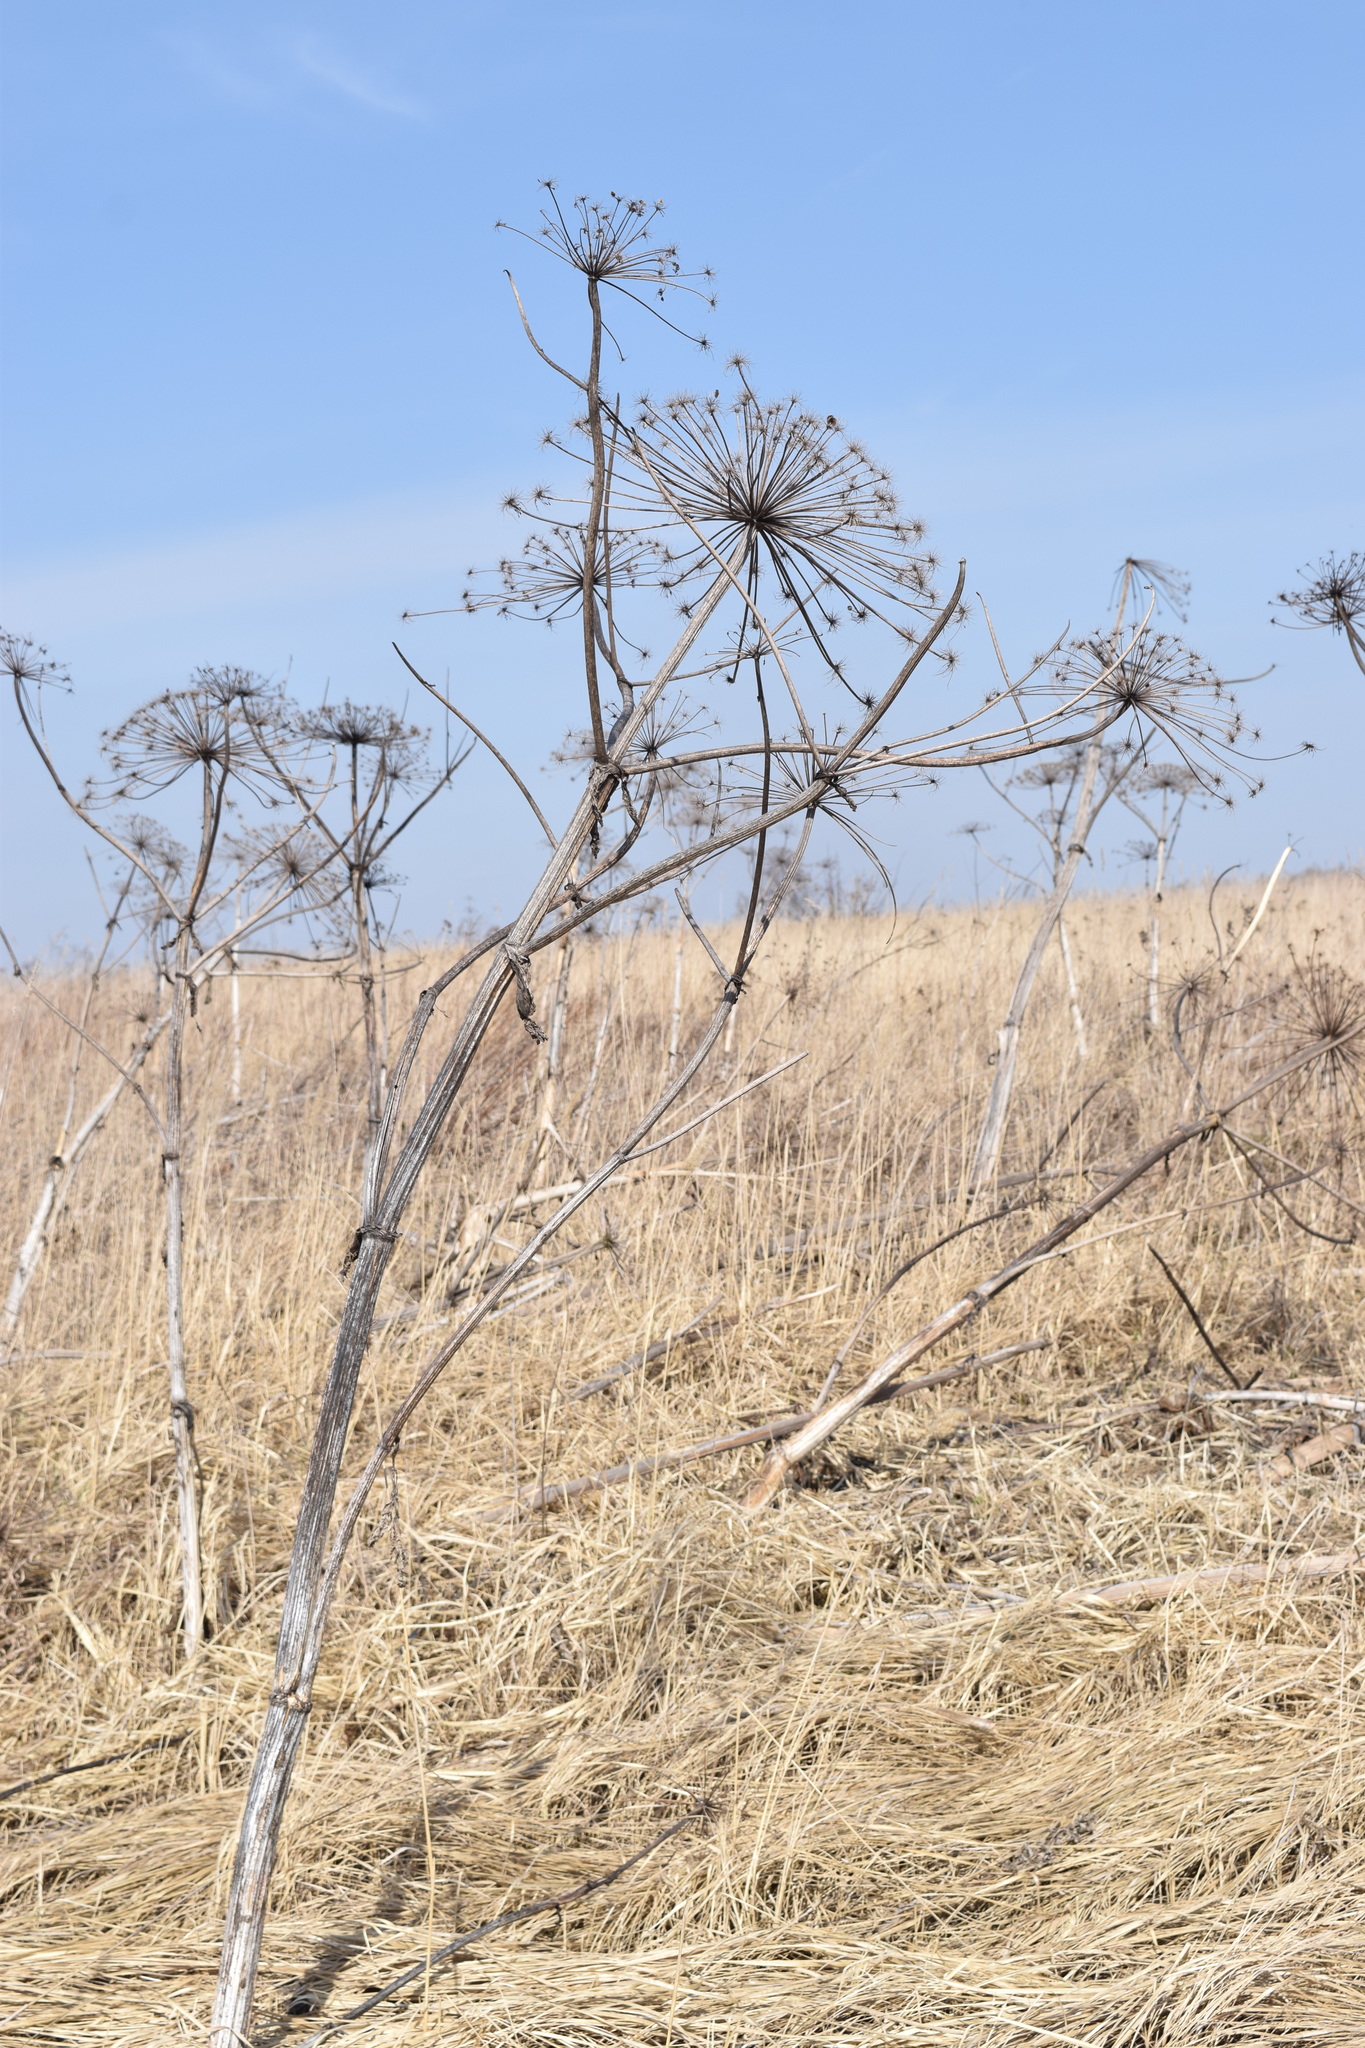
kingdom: Plantae
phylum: Tracheophyta
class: Magnoliopsida
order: Apiales
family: Apiaceae
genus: Heracleum
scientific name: Heracleum sosnowskyi
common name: Sosnowsky's hogweed
